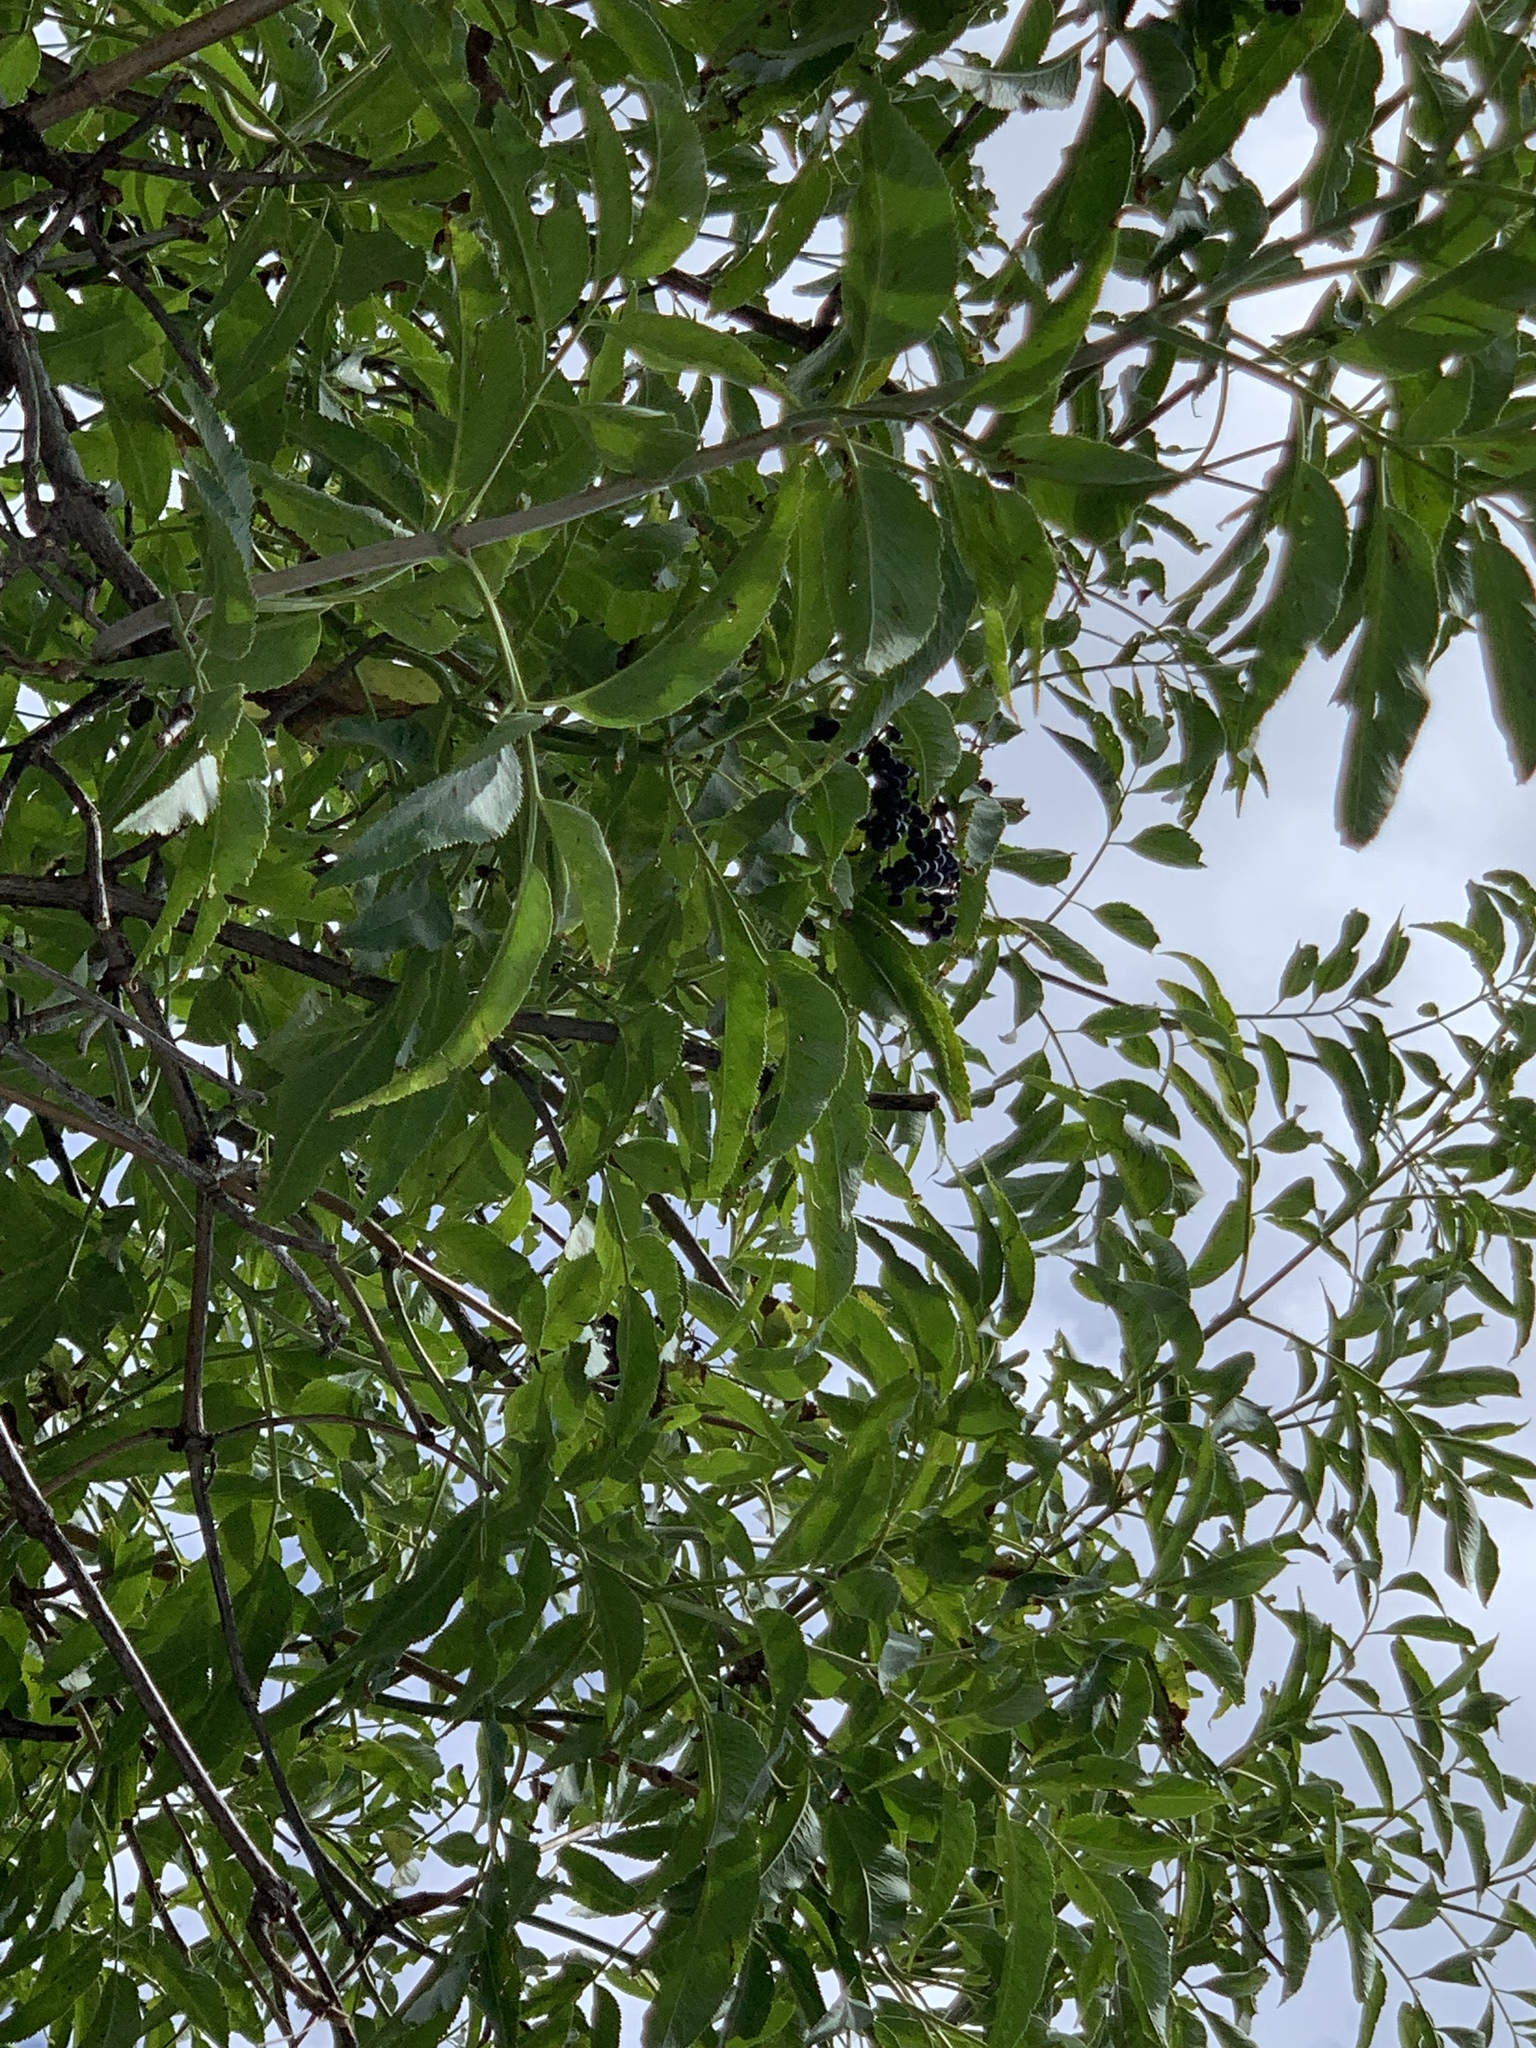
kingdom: Plantae
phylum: Tracheophyta
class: Magnoliopsida
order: Dipsacales
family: Viburnaceae
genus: Sambucus
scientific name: Sambucus cerulea
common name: Blue elder
